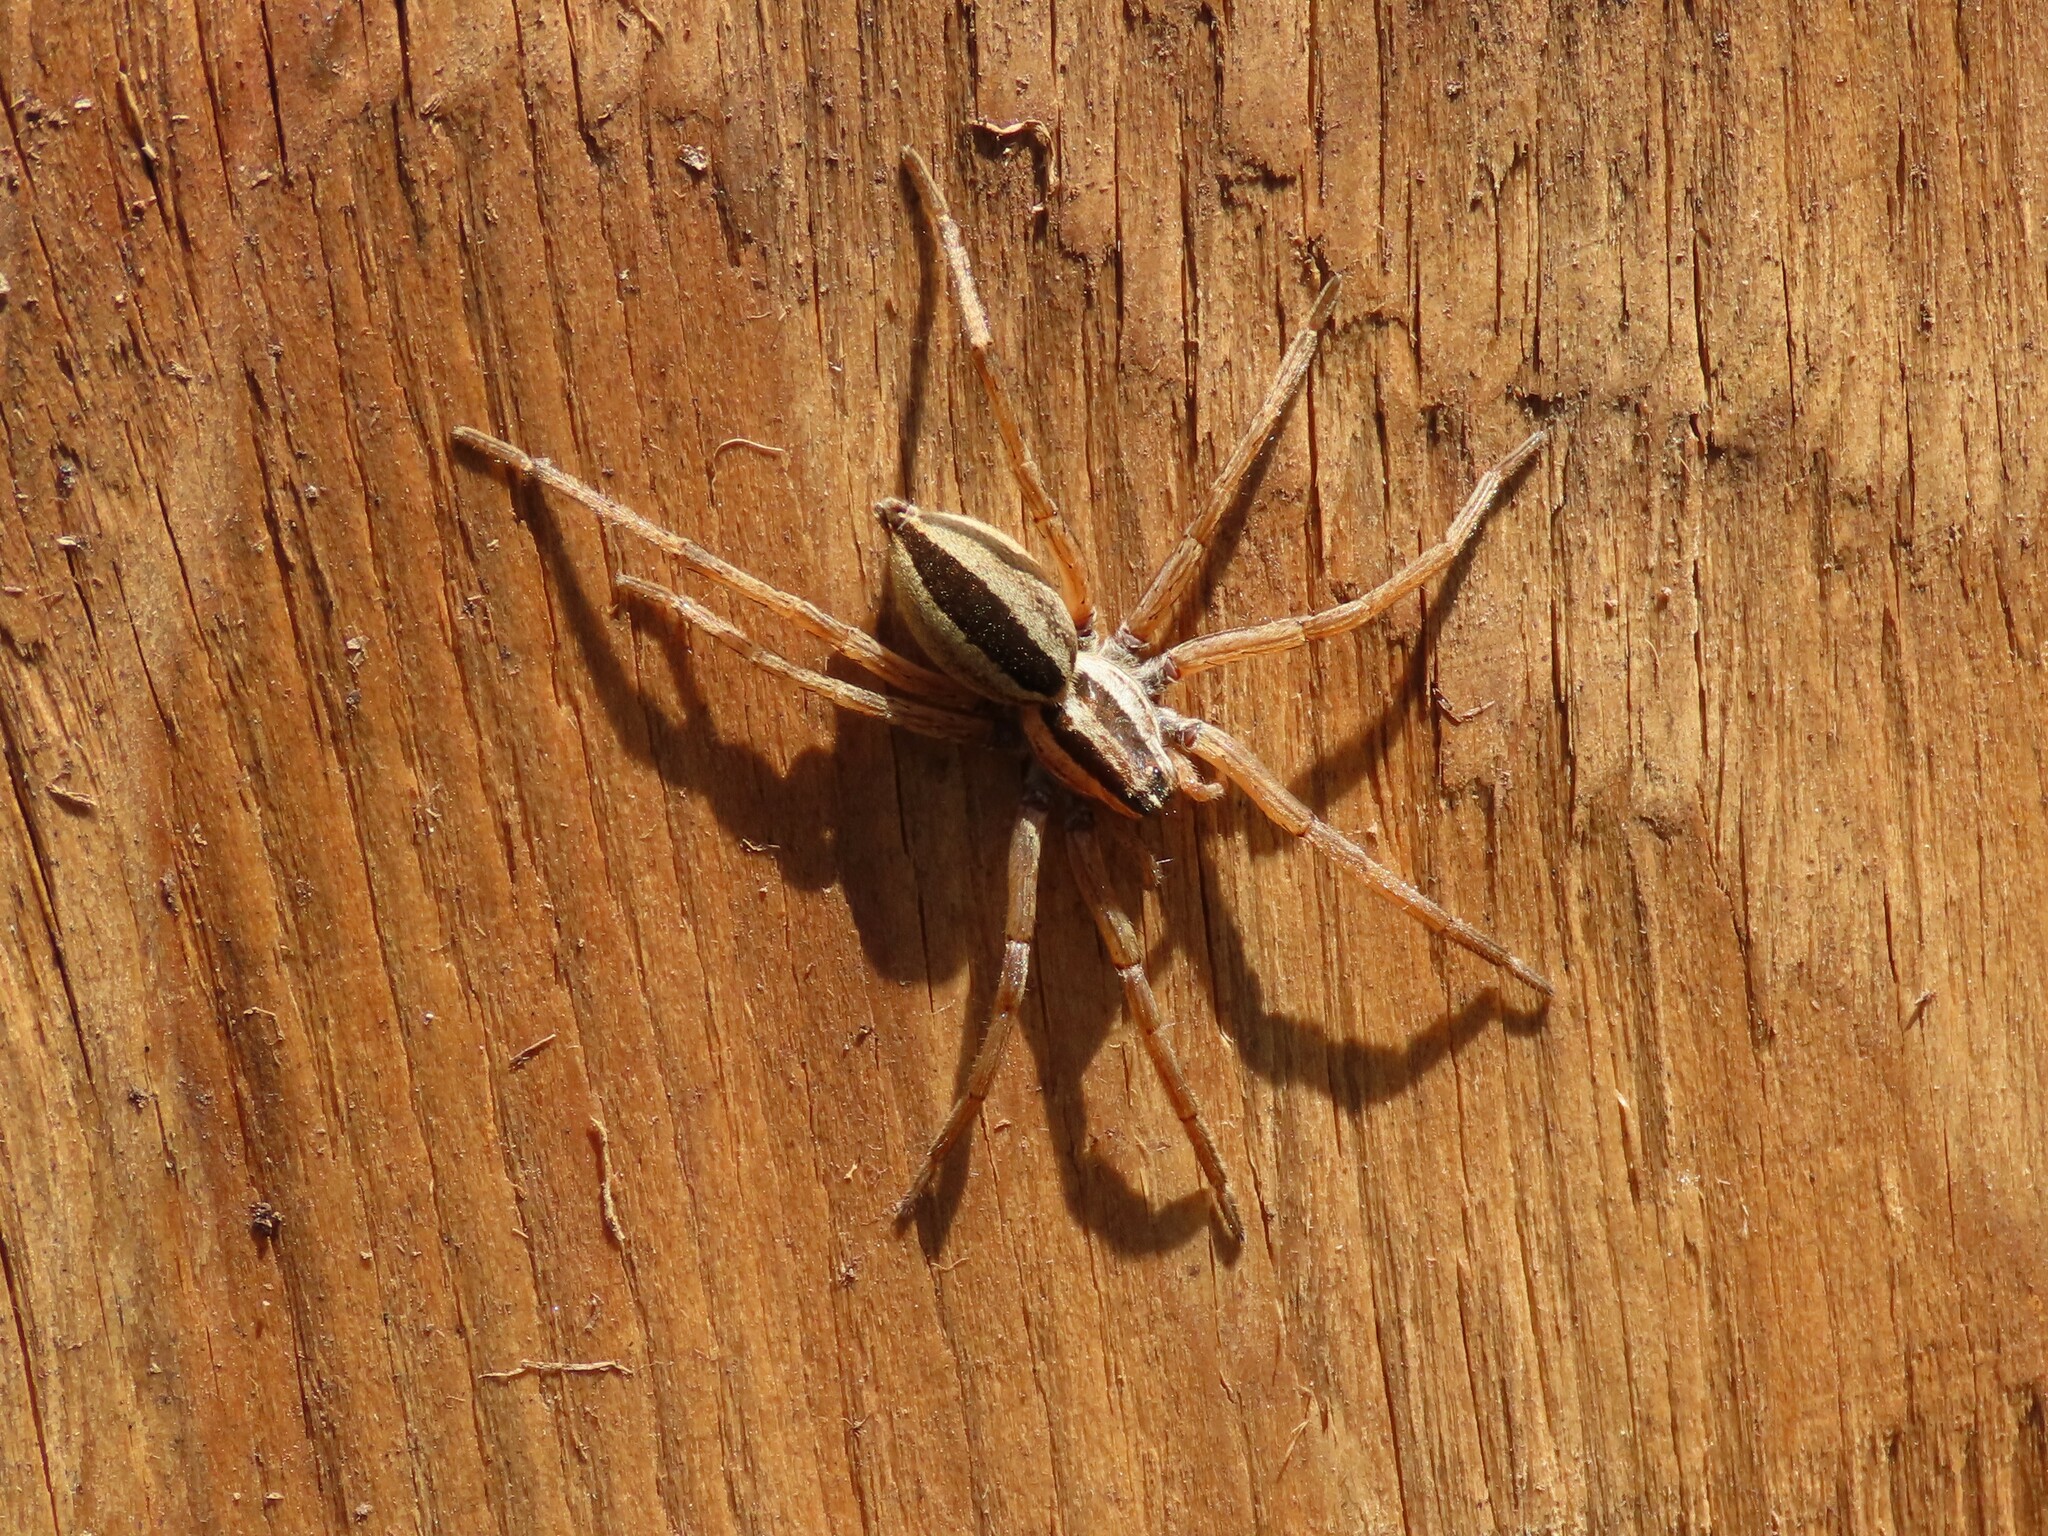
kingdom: Animalia
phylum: Arthropoda
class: Arachnida
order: Araneae
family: Lycosidae
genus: Rabidosa
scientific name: Rabidosa punctulata
